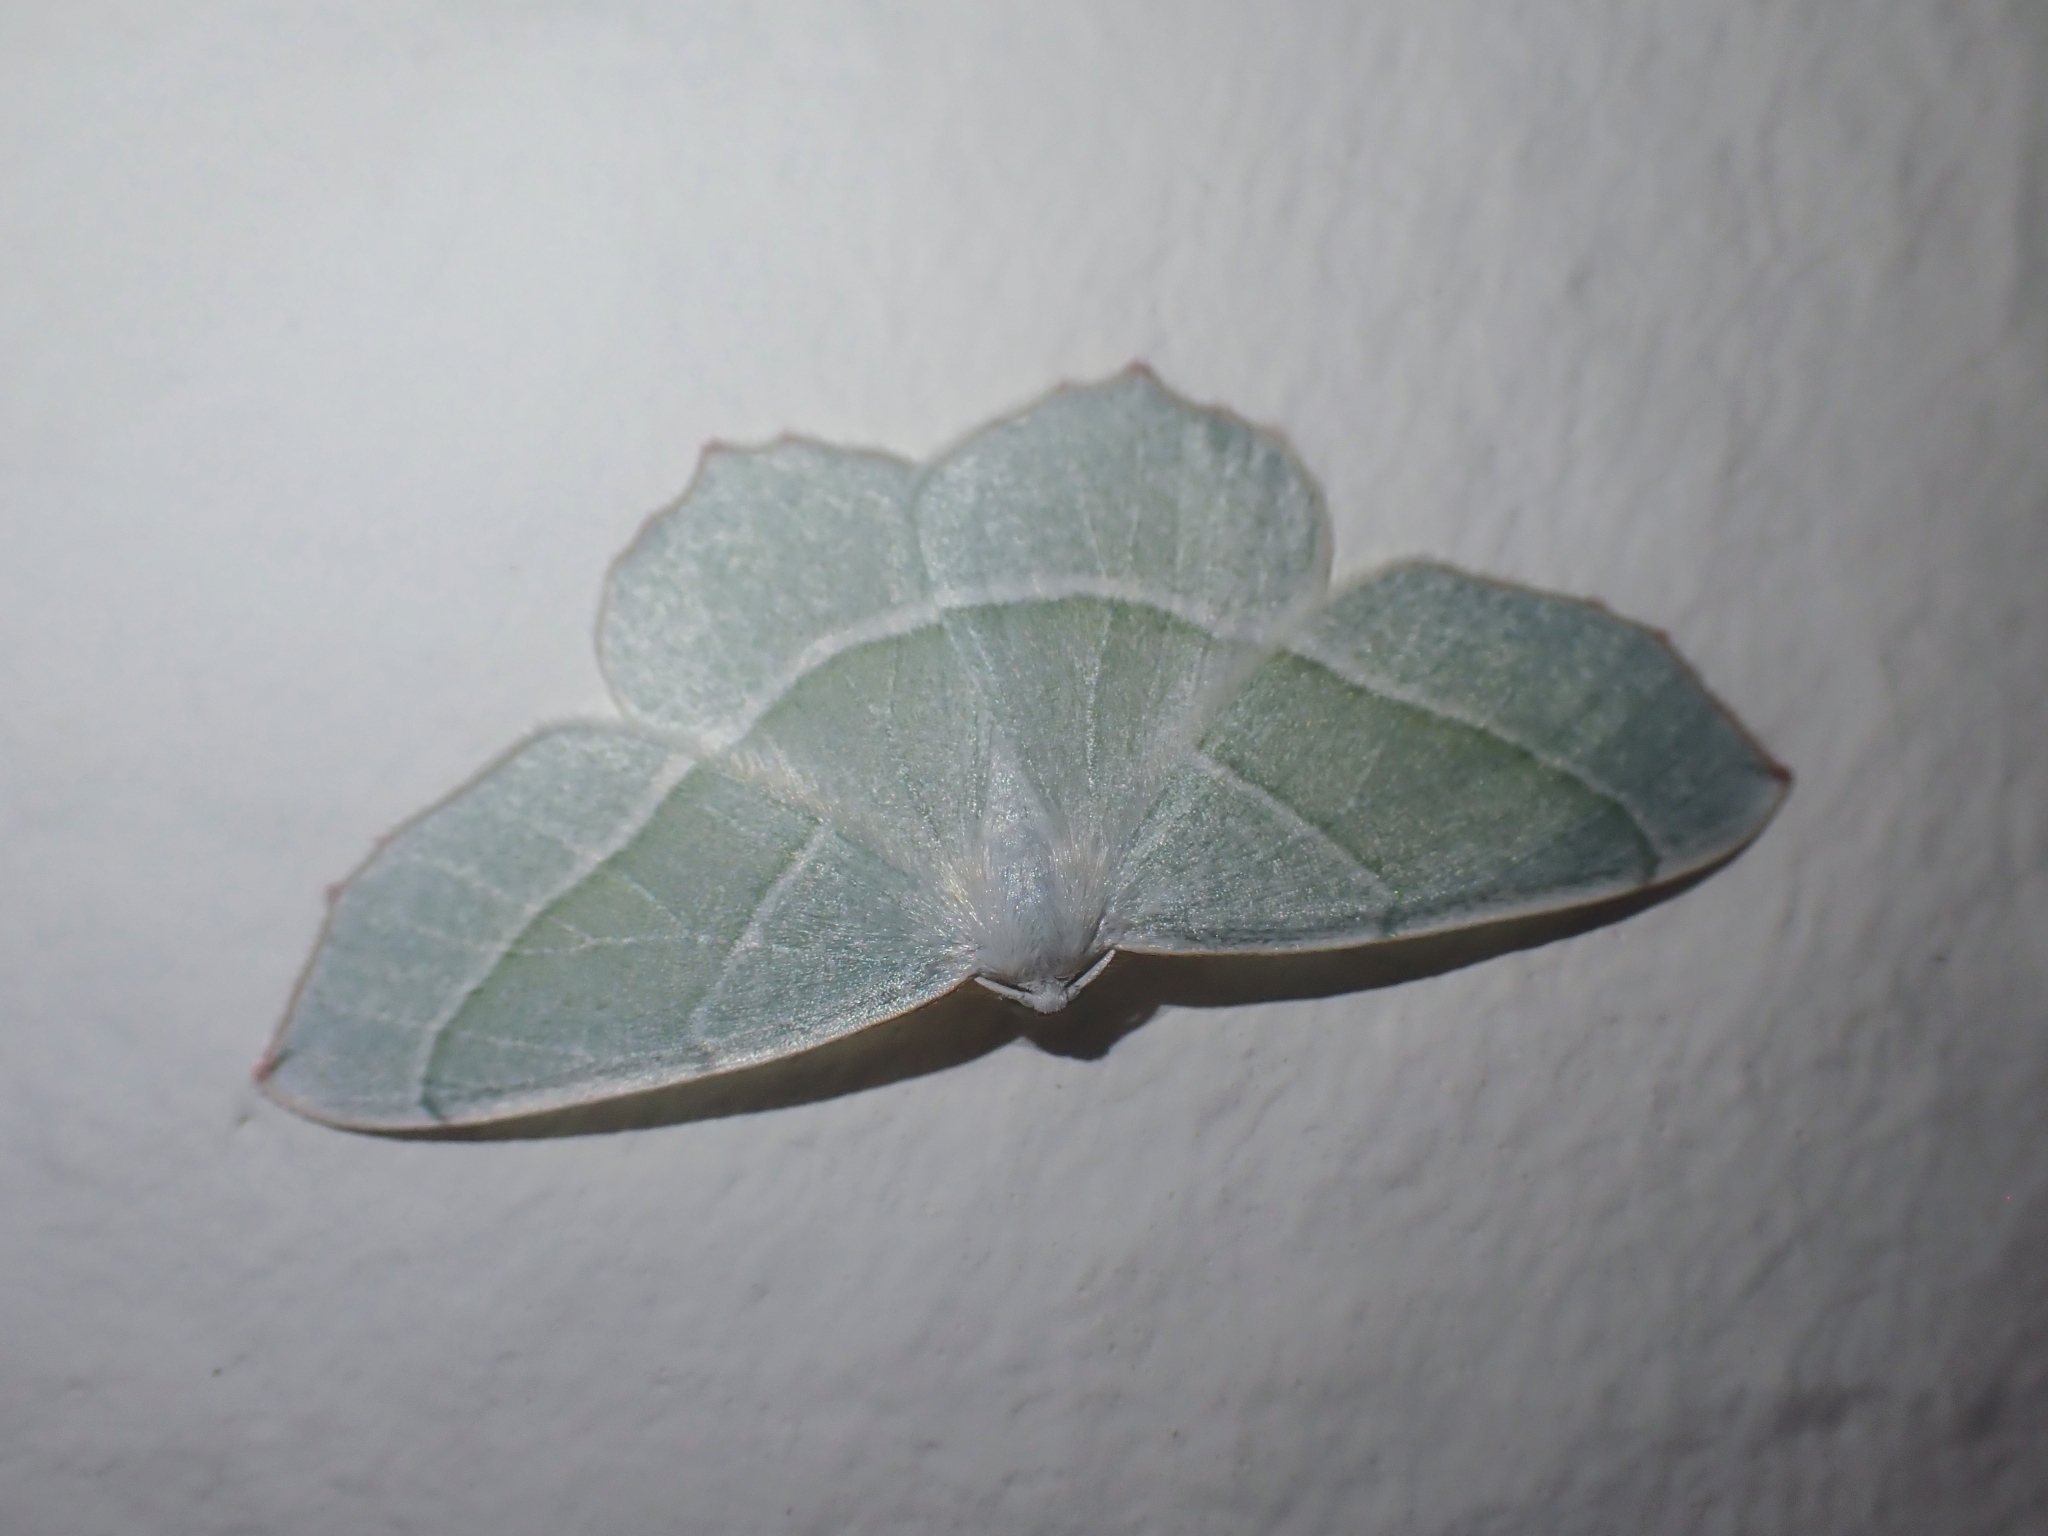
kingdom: Animalia
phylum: Arthropoda
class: Insecta
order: Lepidoptera
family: Geometridae
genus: Campaea
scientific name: Campaea margaritaria
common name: Light emerald
